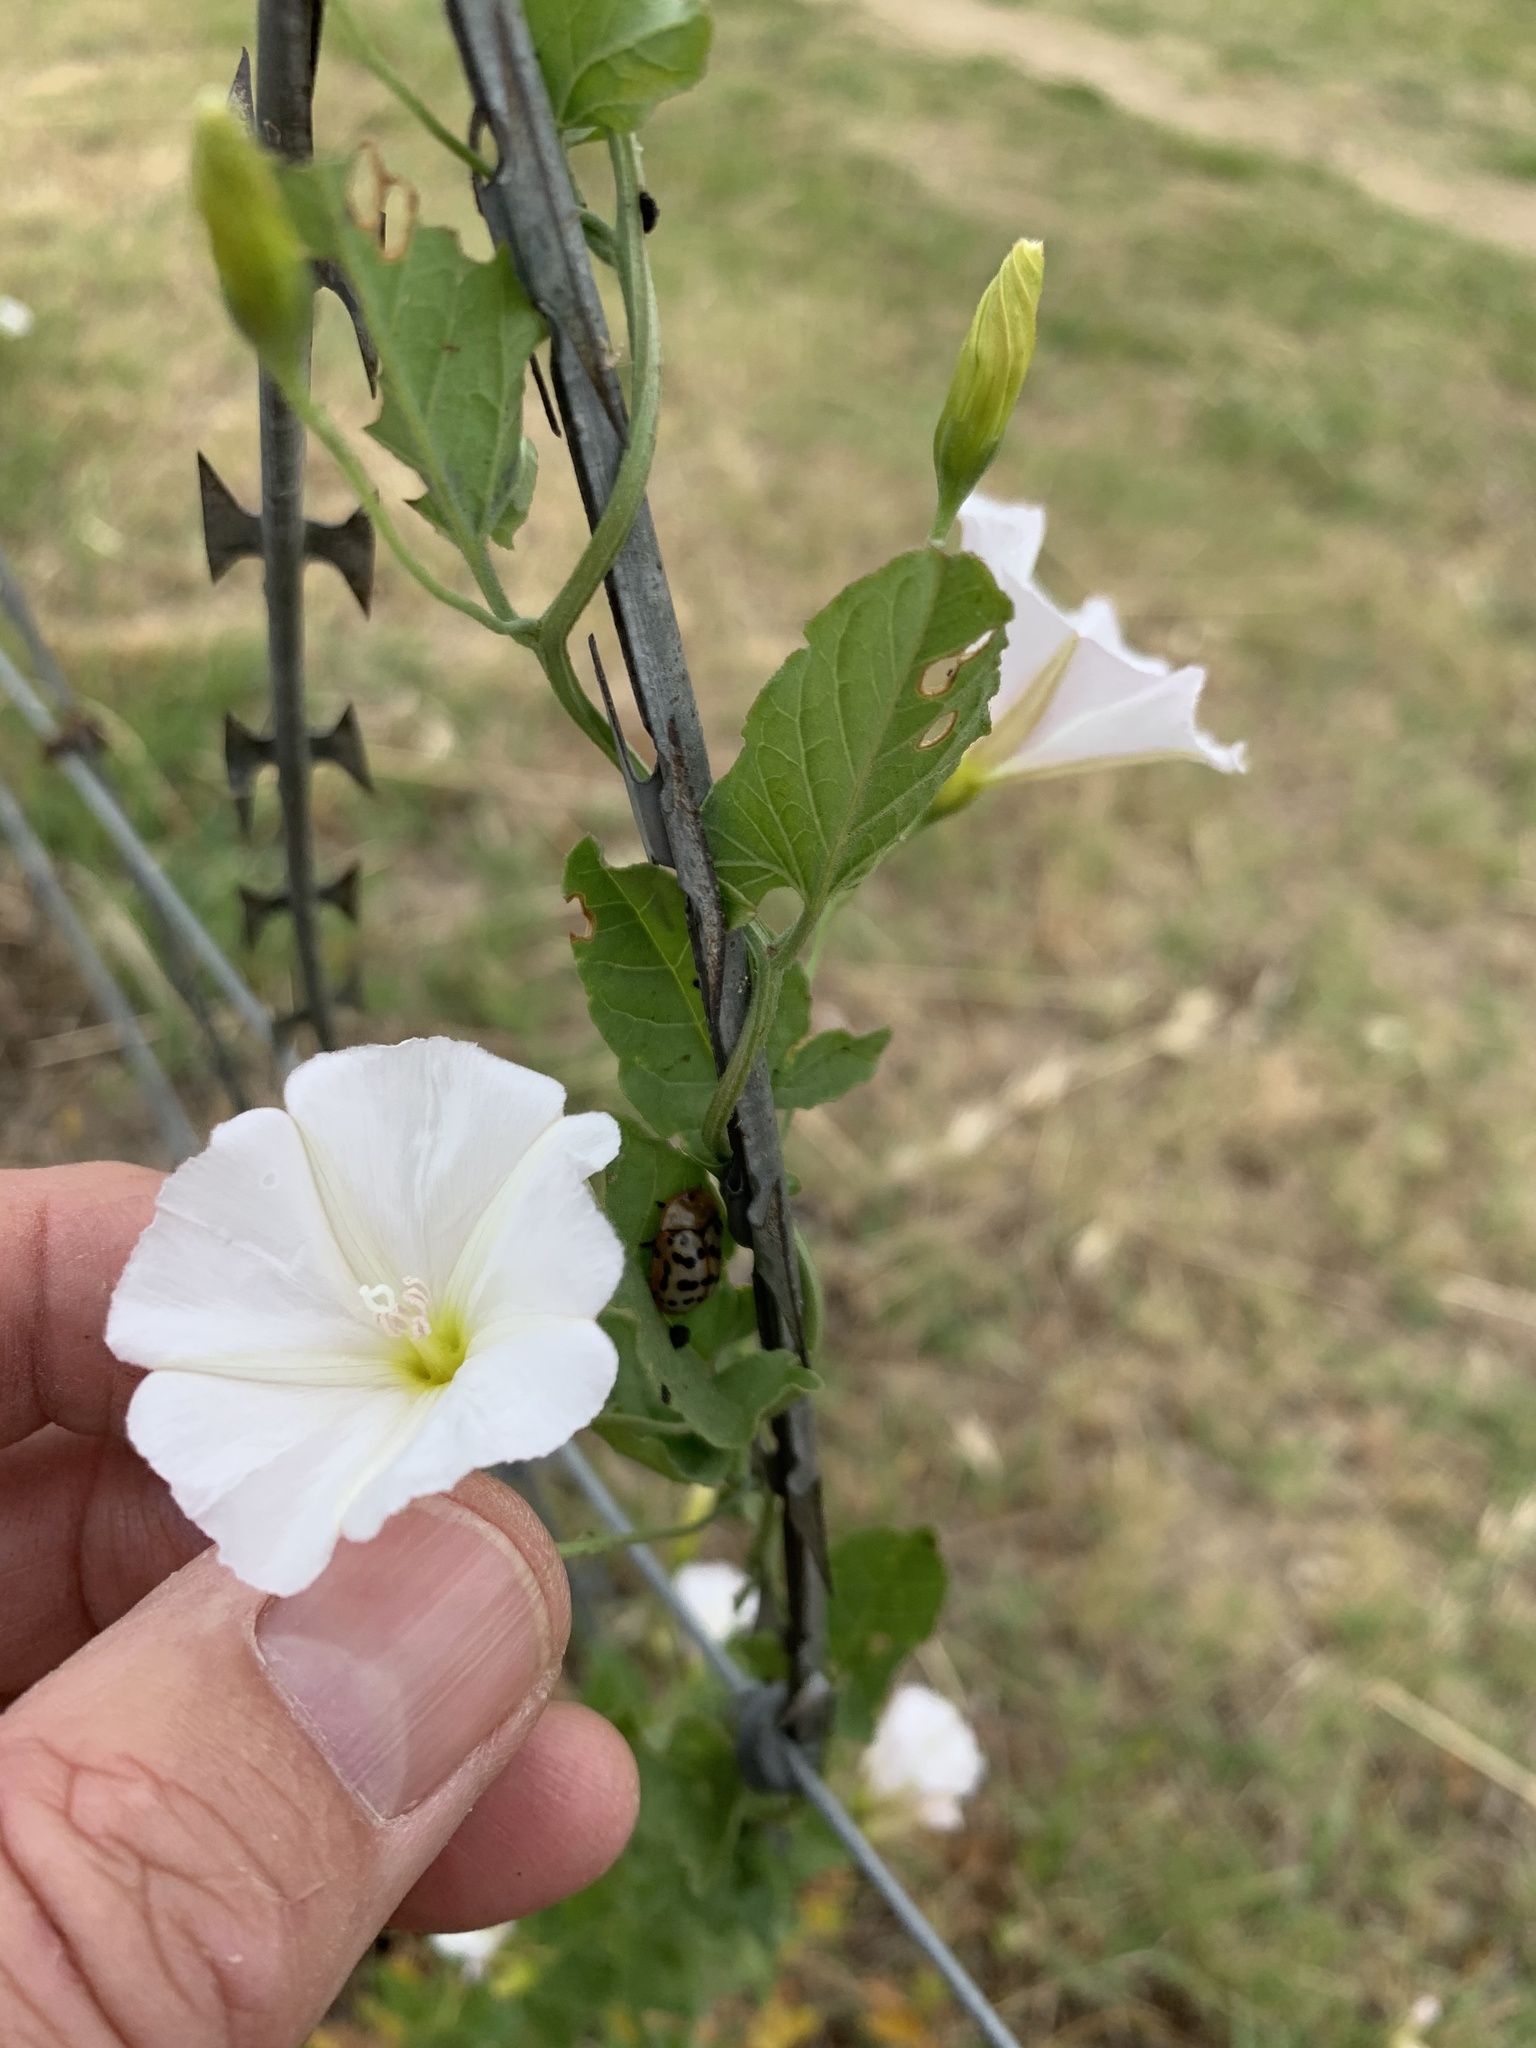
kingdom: Plantae
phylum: Tracheophyta
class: Magnoliopsida
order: Solanales
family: Convolvulaceae
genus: Convolvulus
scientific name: Convolvulus arvensis
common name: Field bindweed
